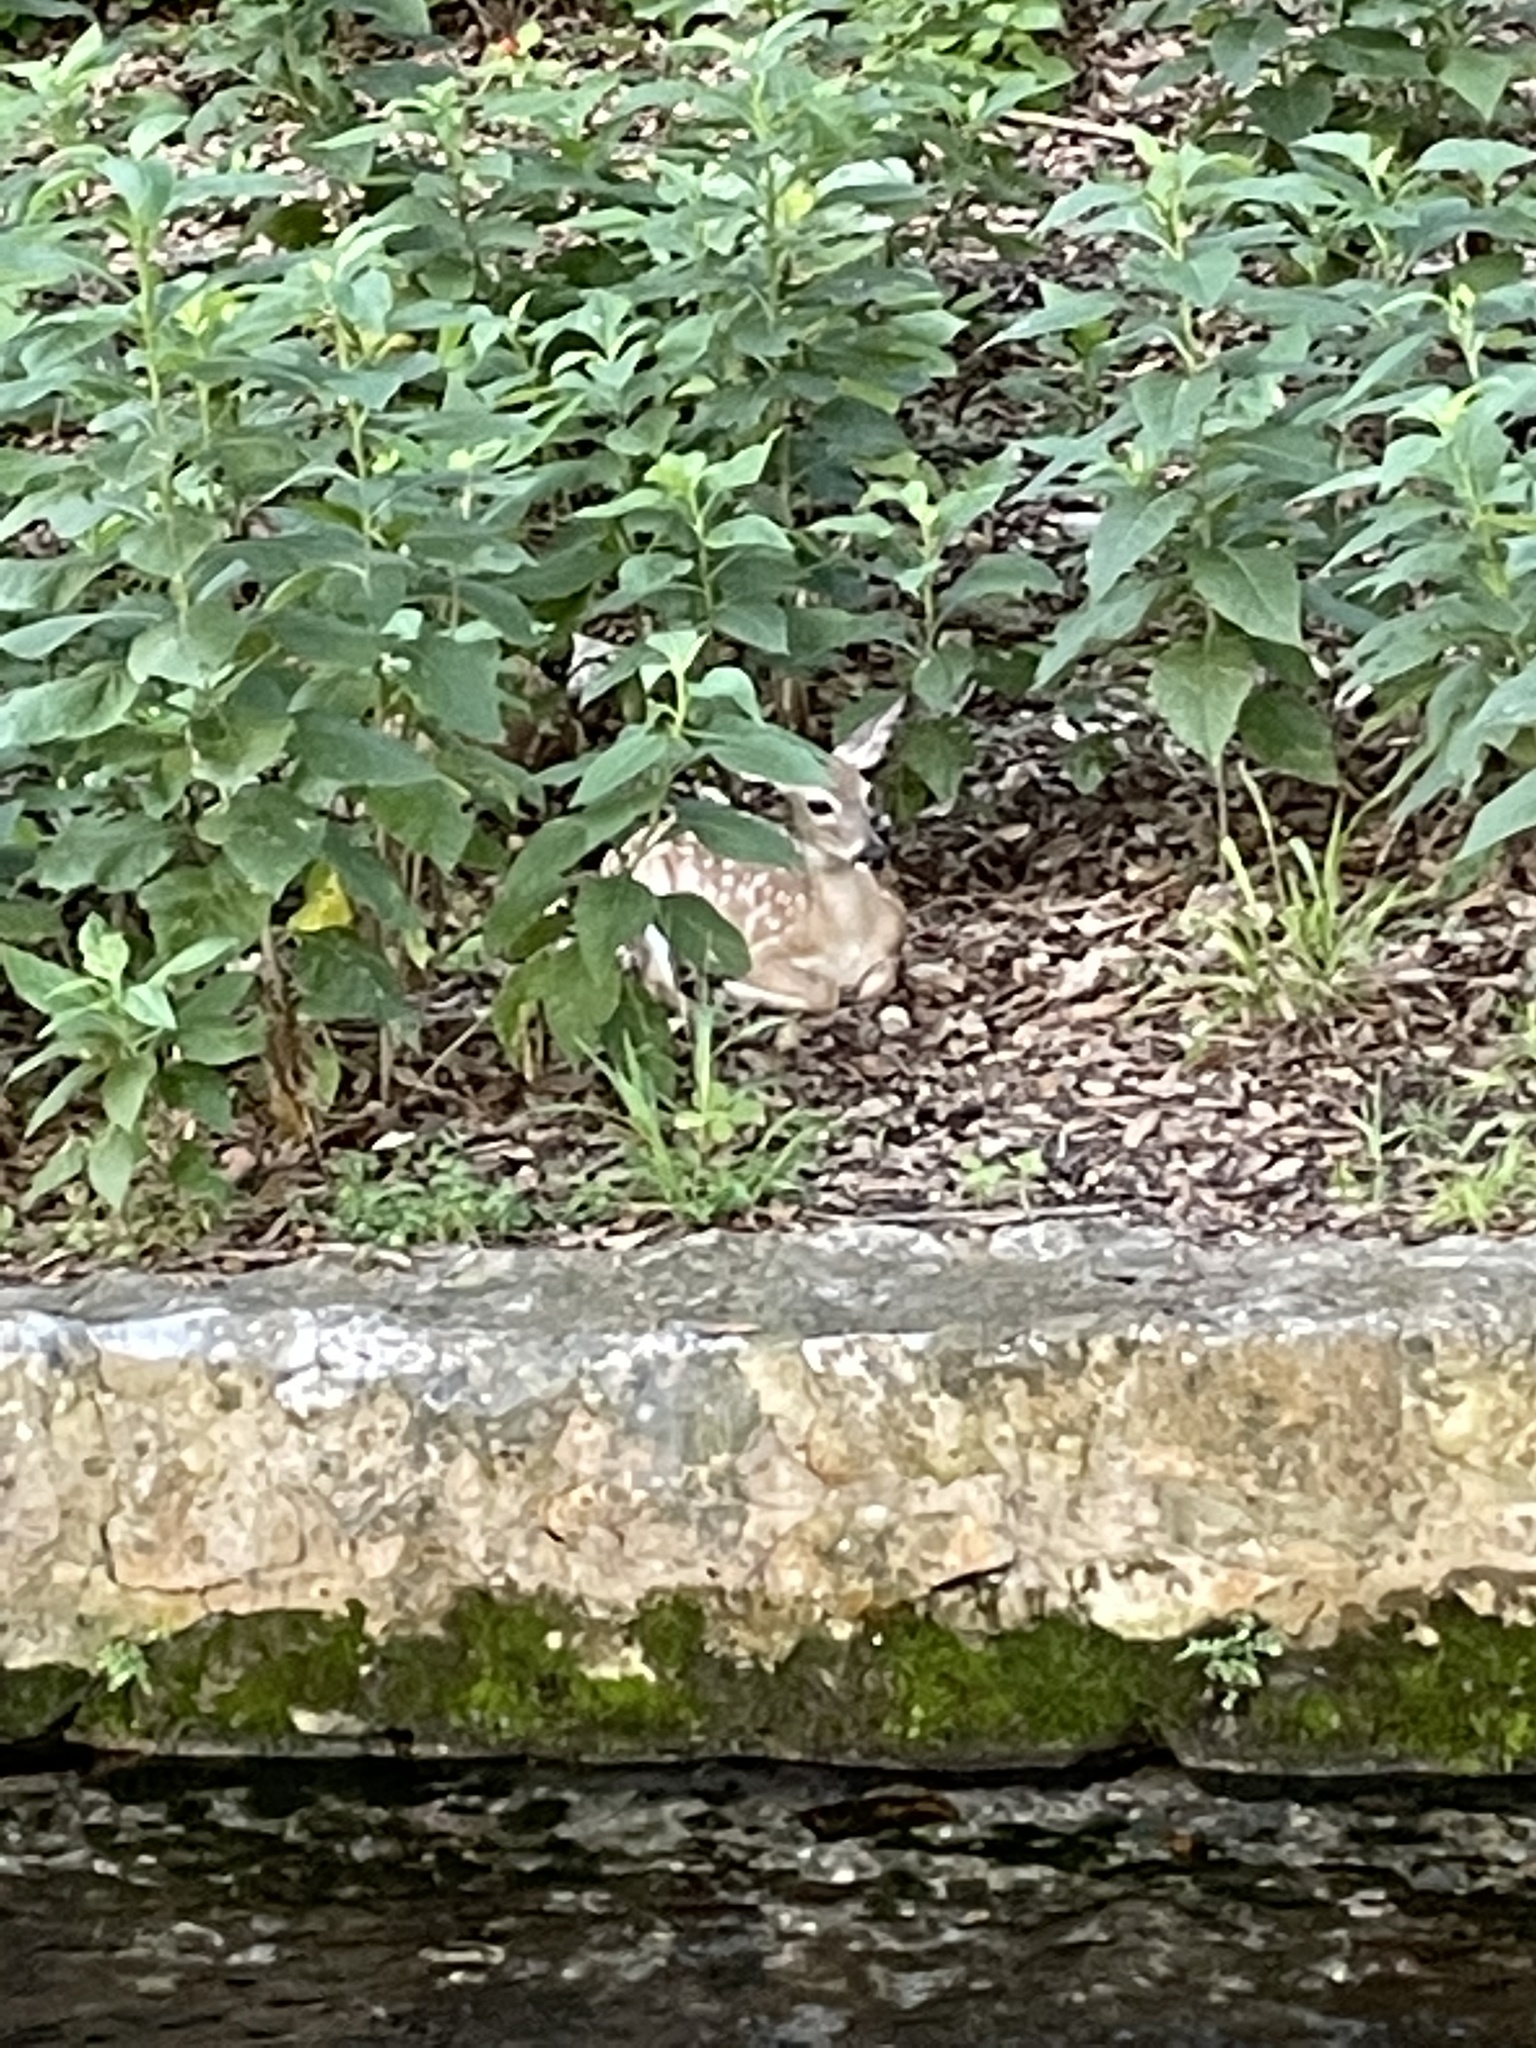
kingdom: Animalia
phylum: Chordata
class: Mammalia
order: Artiodactyla
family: Cervidae
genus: Odocoileus
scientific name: Odocoileus virginianus
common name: White-tailed deer
